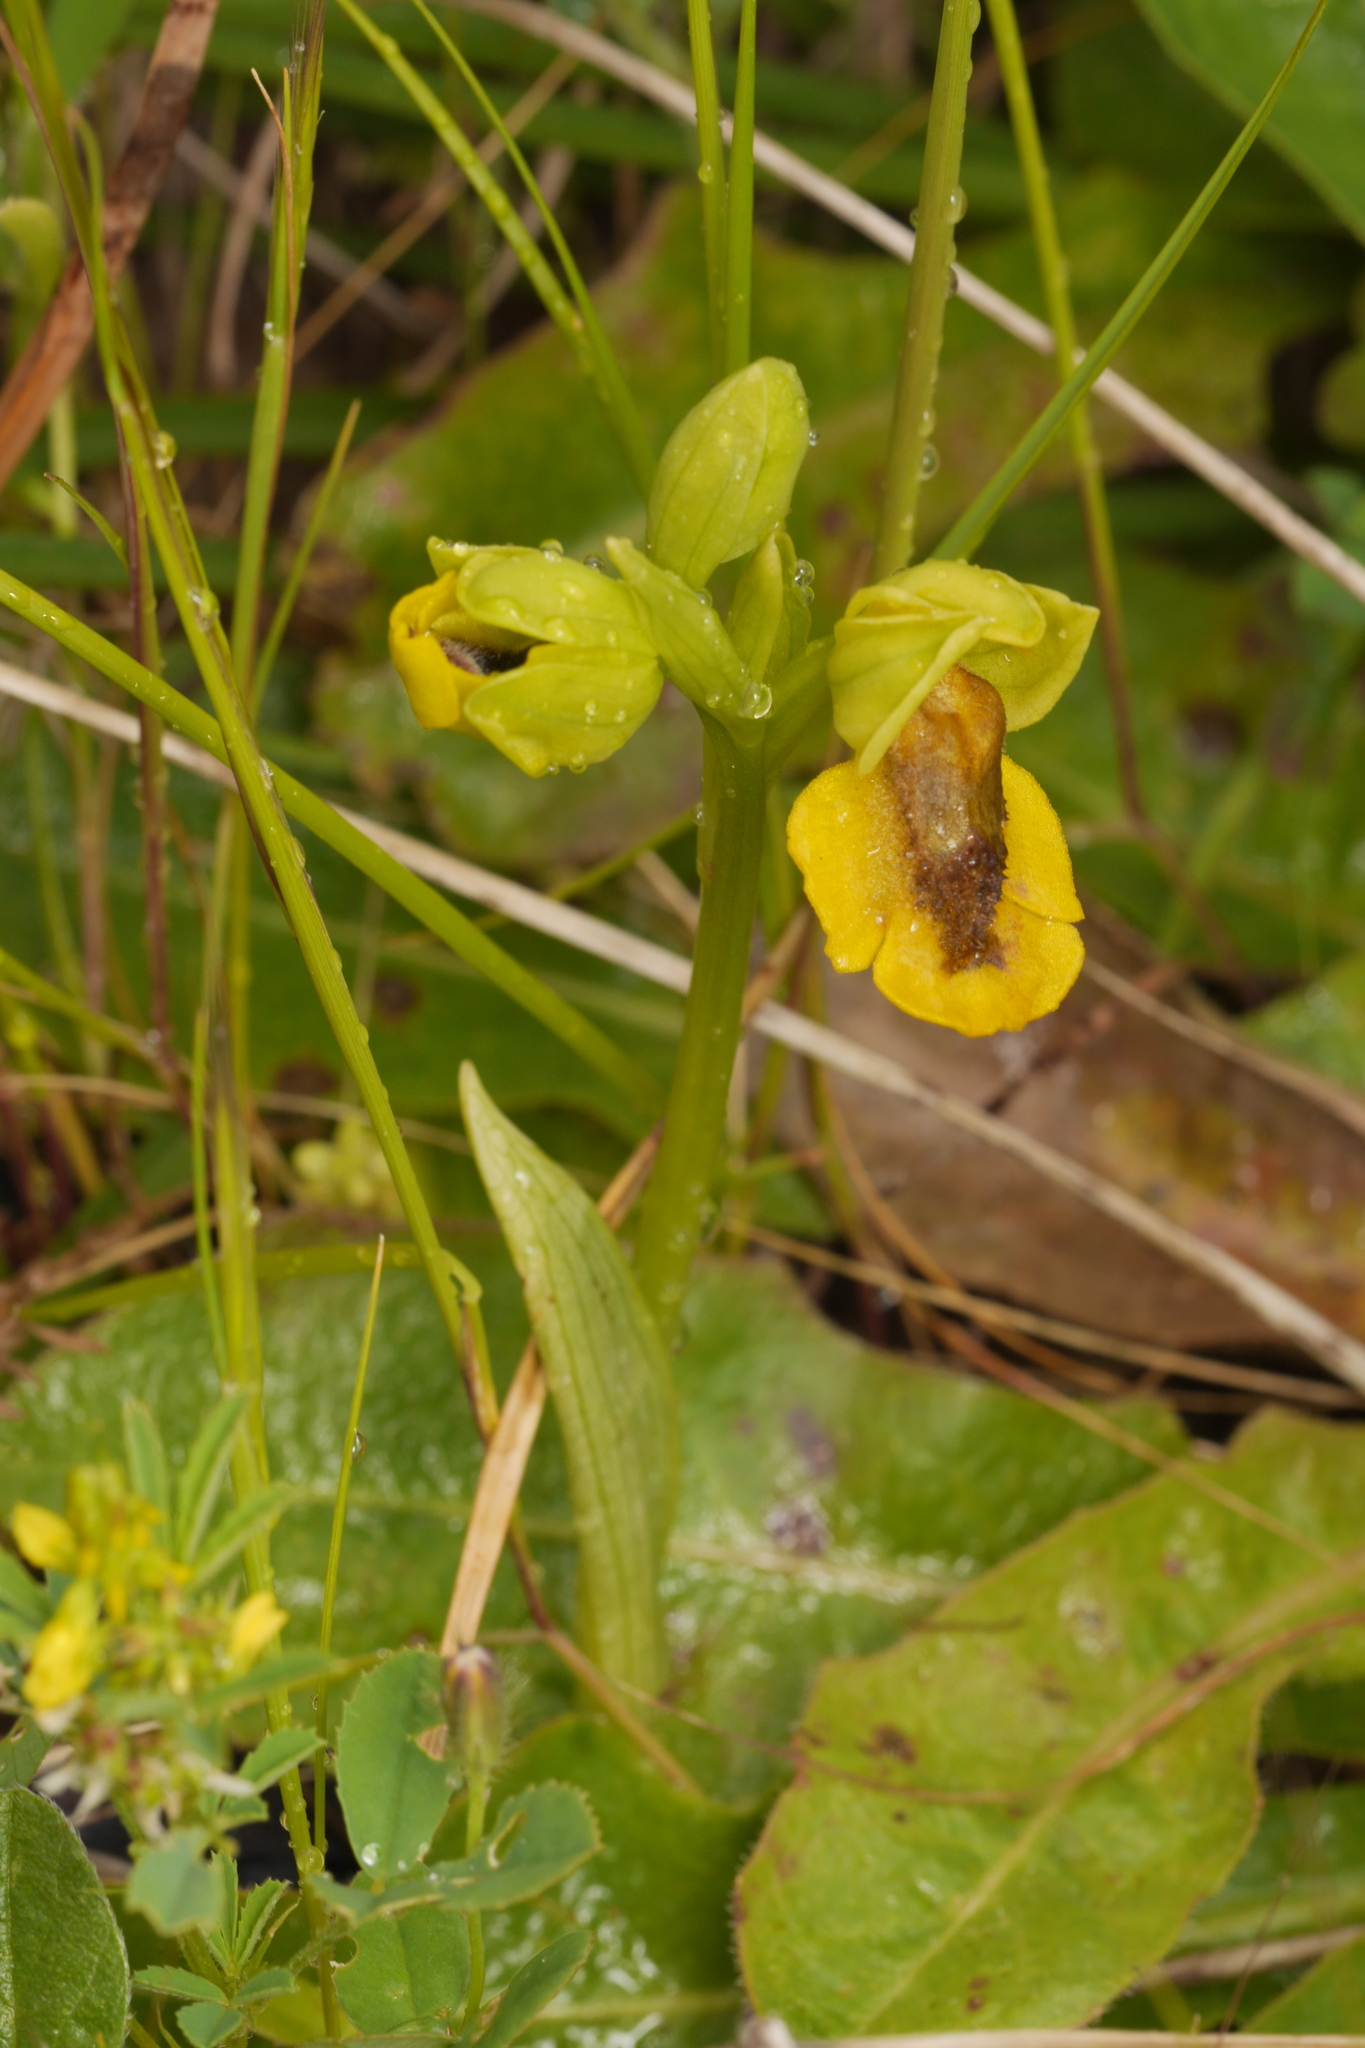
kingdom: Plantae
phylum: Tracheophyta
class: Liliopsida
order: Asparagales
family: Orchidaceae
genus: Ophrys
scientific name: Ophrys lutea
